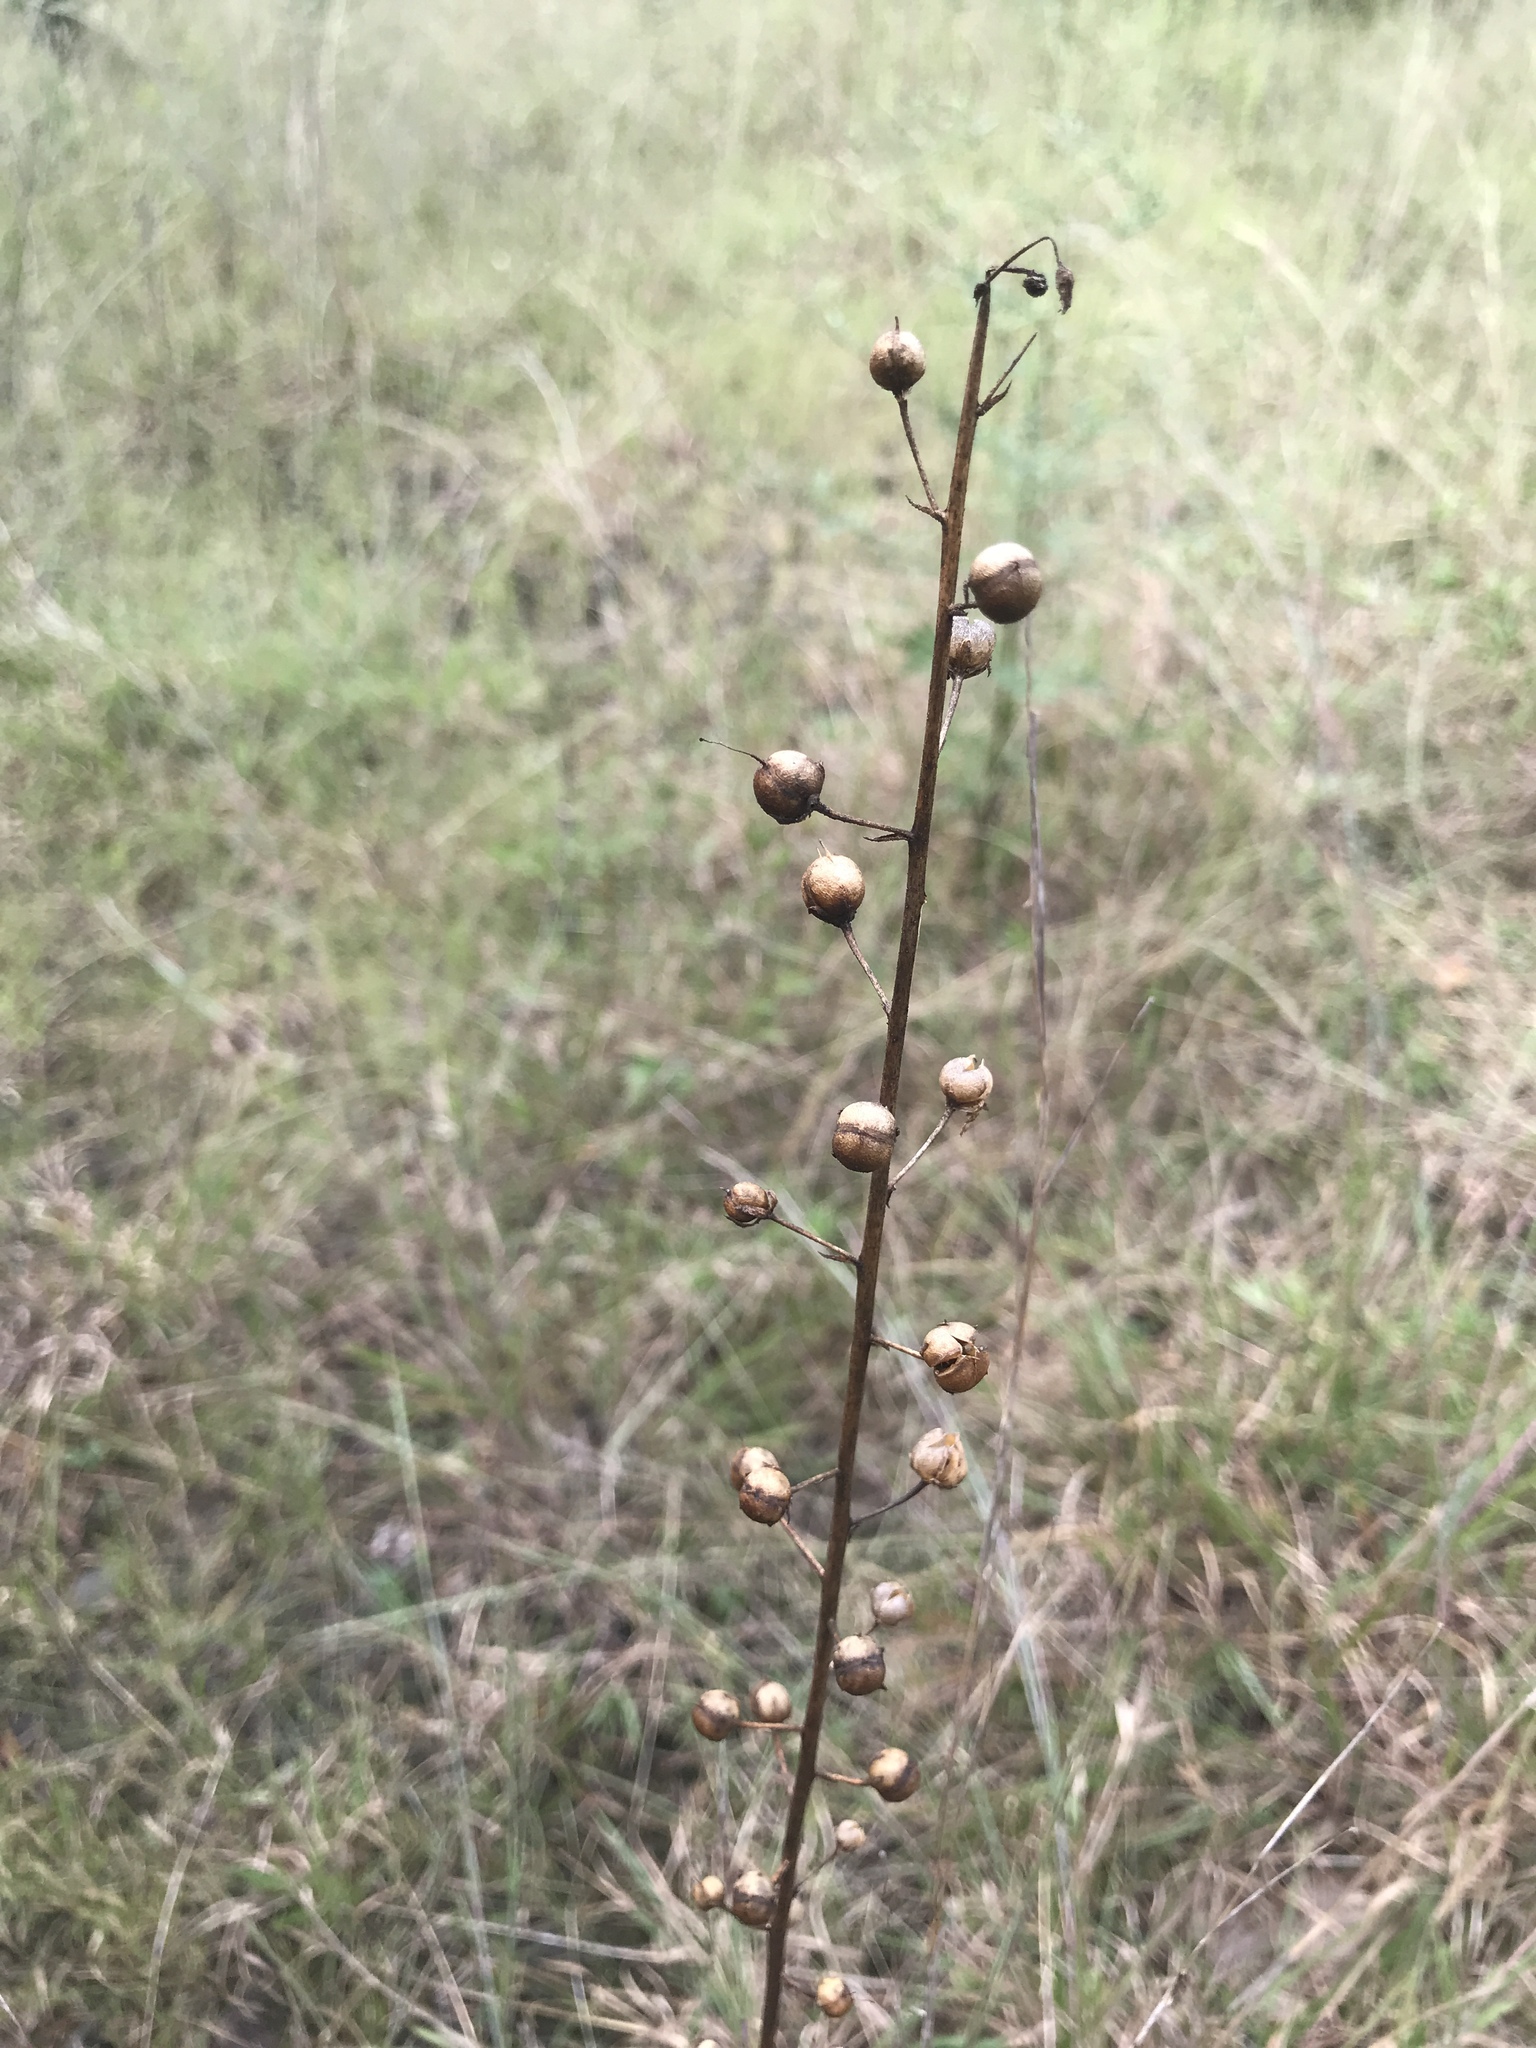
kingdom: Plantae
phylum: Tracheophyta
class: Magnoliopsida
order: Lamiales
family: Scrophulariaceae
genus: Verbascum
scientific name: Verbascum blattaria
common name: Moth mullein
